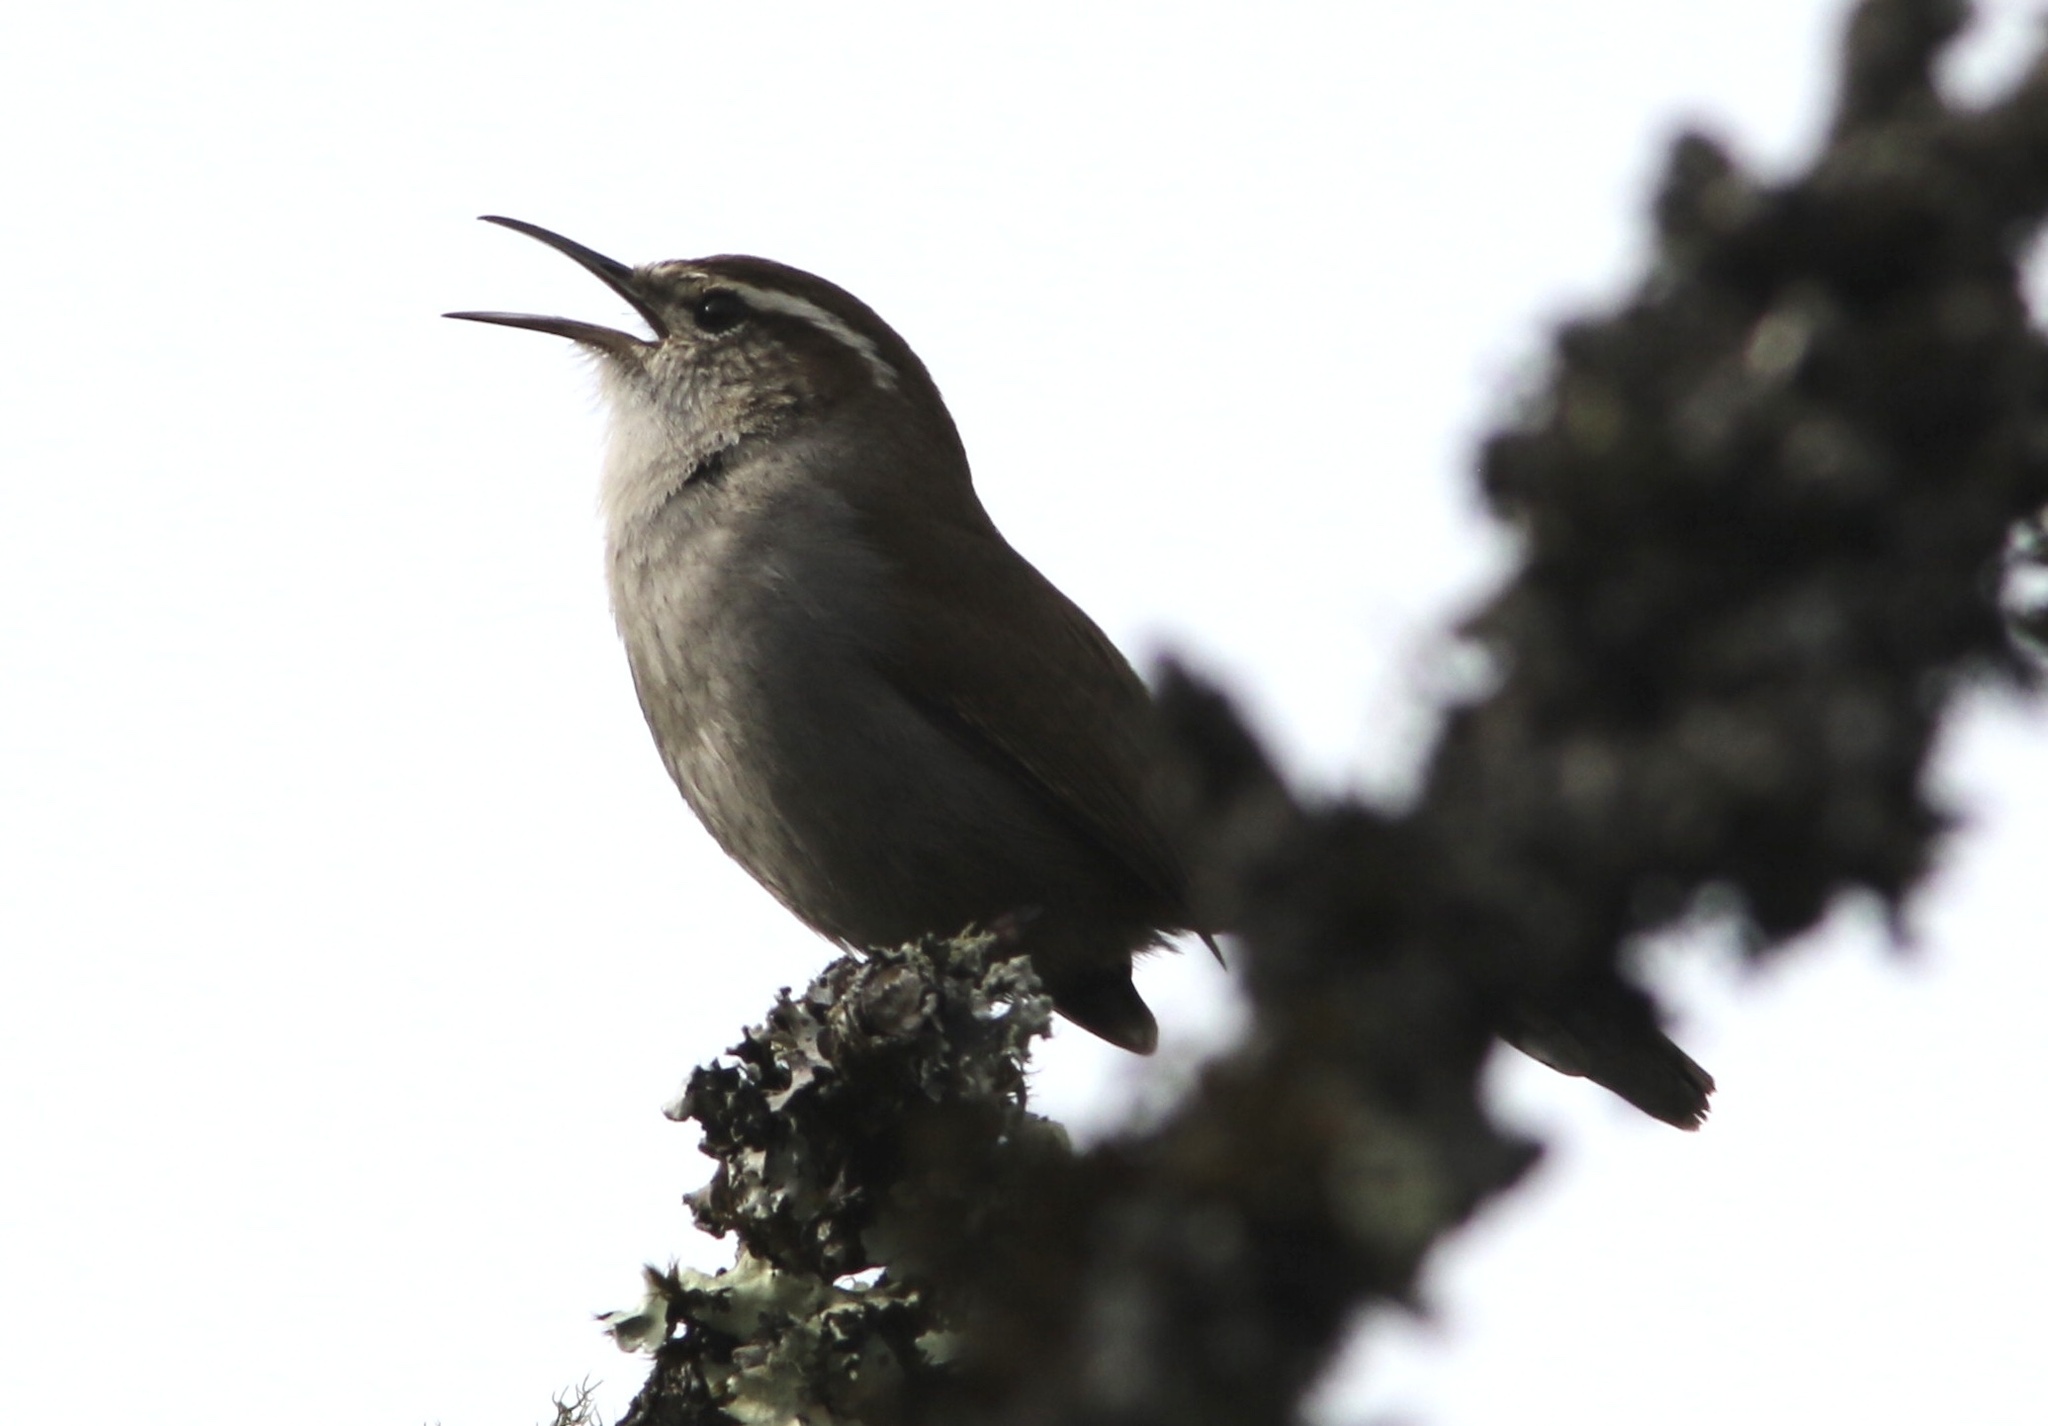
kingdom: Animalia
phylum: Chordata
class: Aves
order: Passeriformes
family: Troglodytidae
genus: Thryomanes
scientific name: Thryomanes bewickii
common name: Bewick's wren
